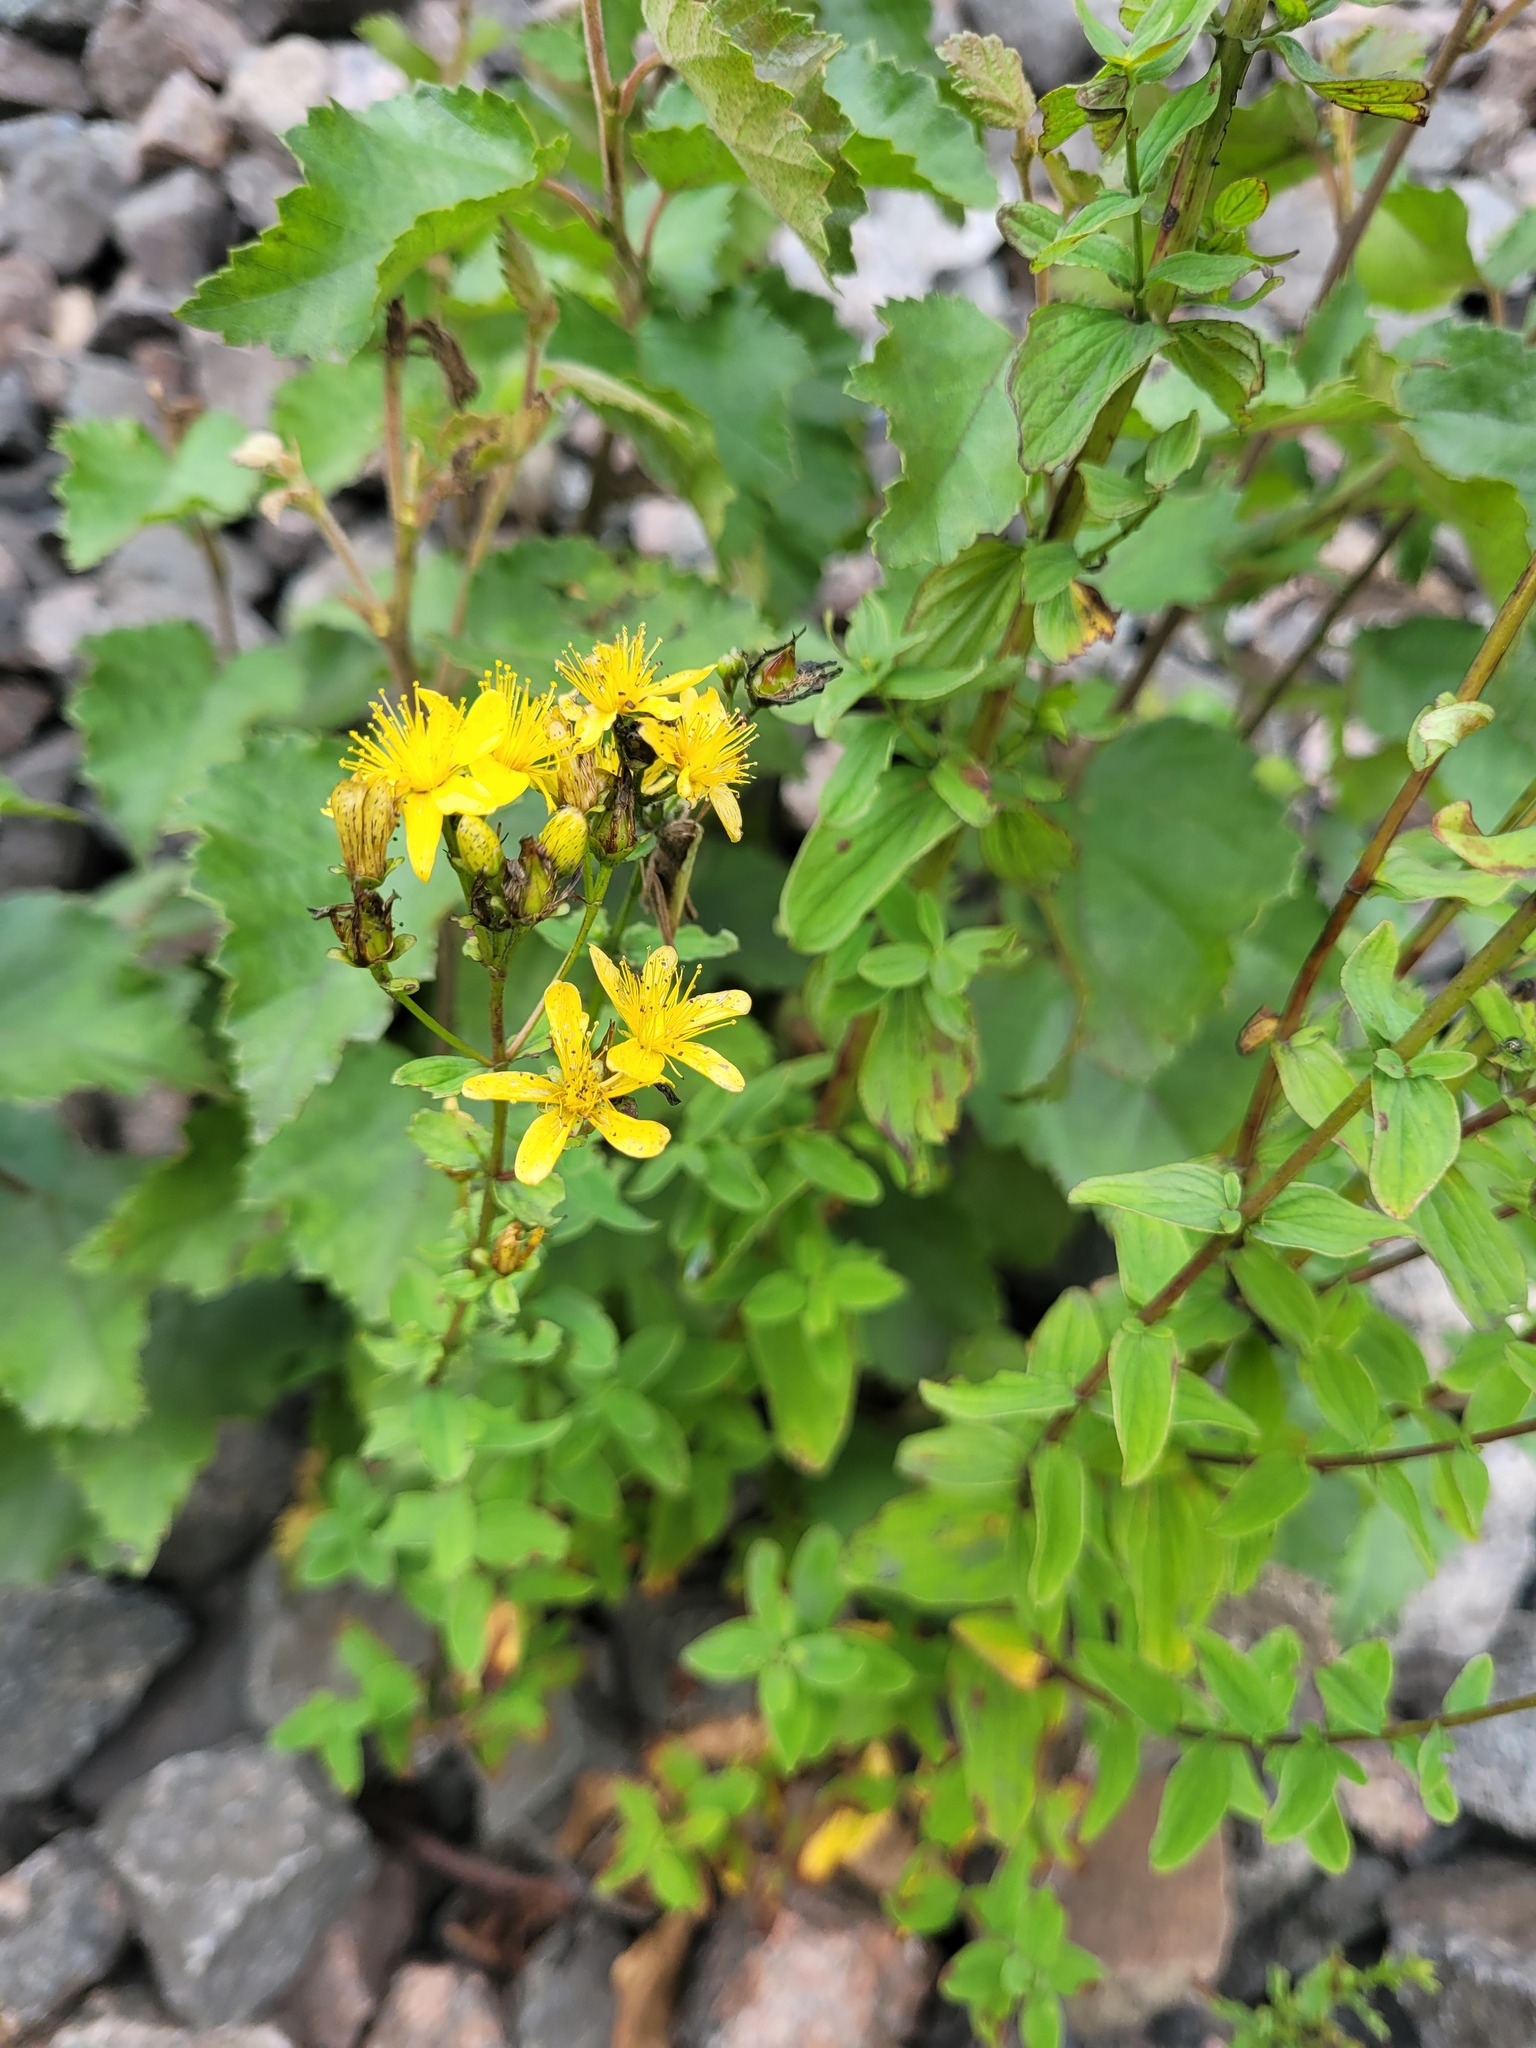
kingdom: Plantae
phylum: Tracheophyta
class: Magnoliopsida
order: Malpighiales
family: Hypericaceae
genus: Hypericum
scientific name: Hypericum maculatum
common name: Imperforate st. john's-wort
